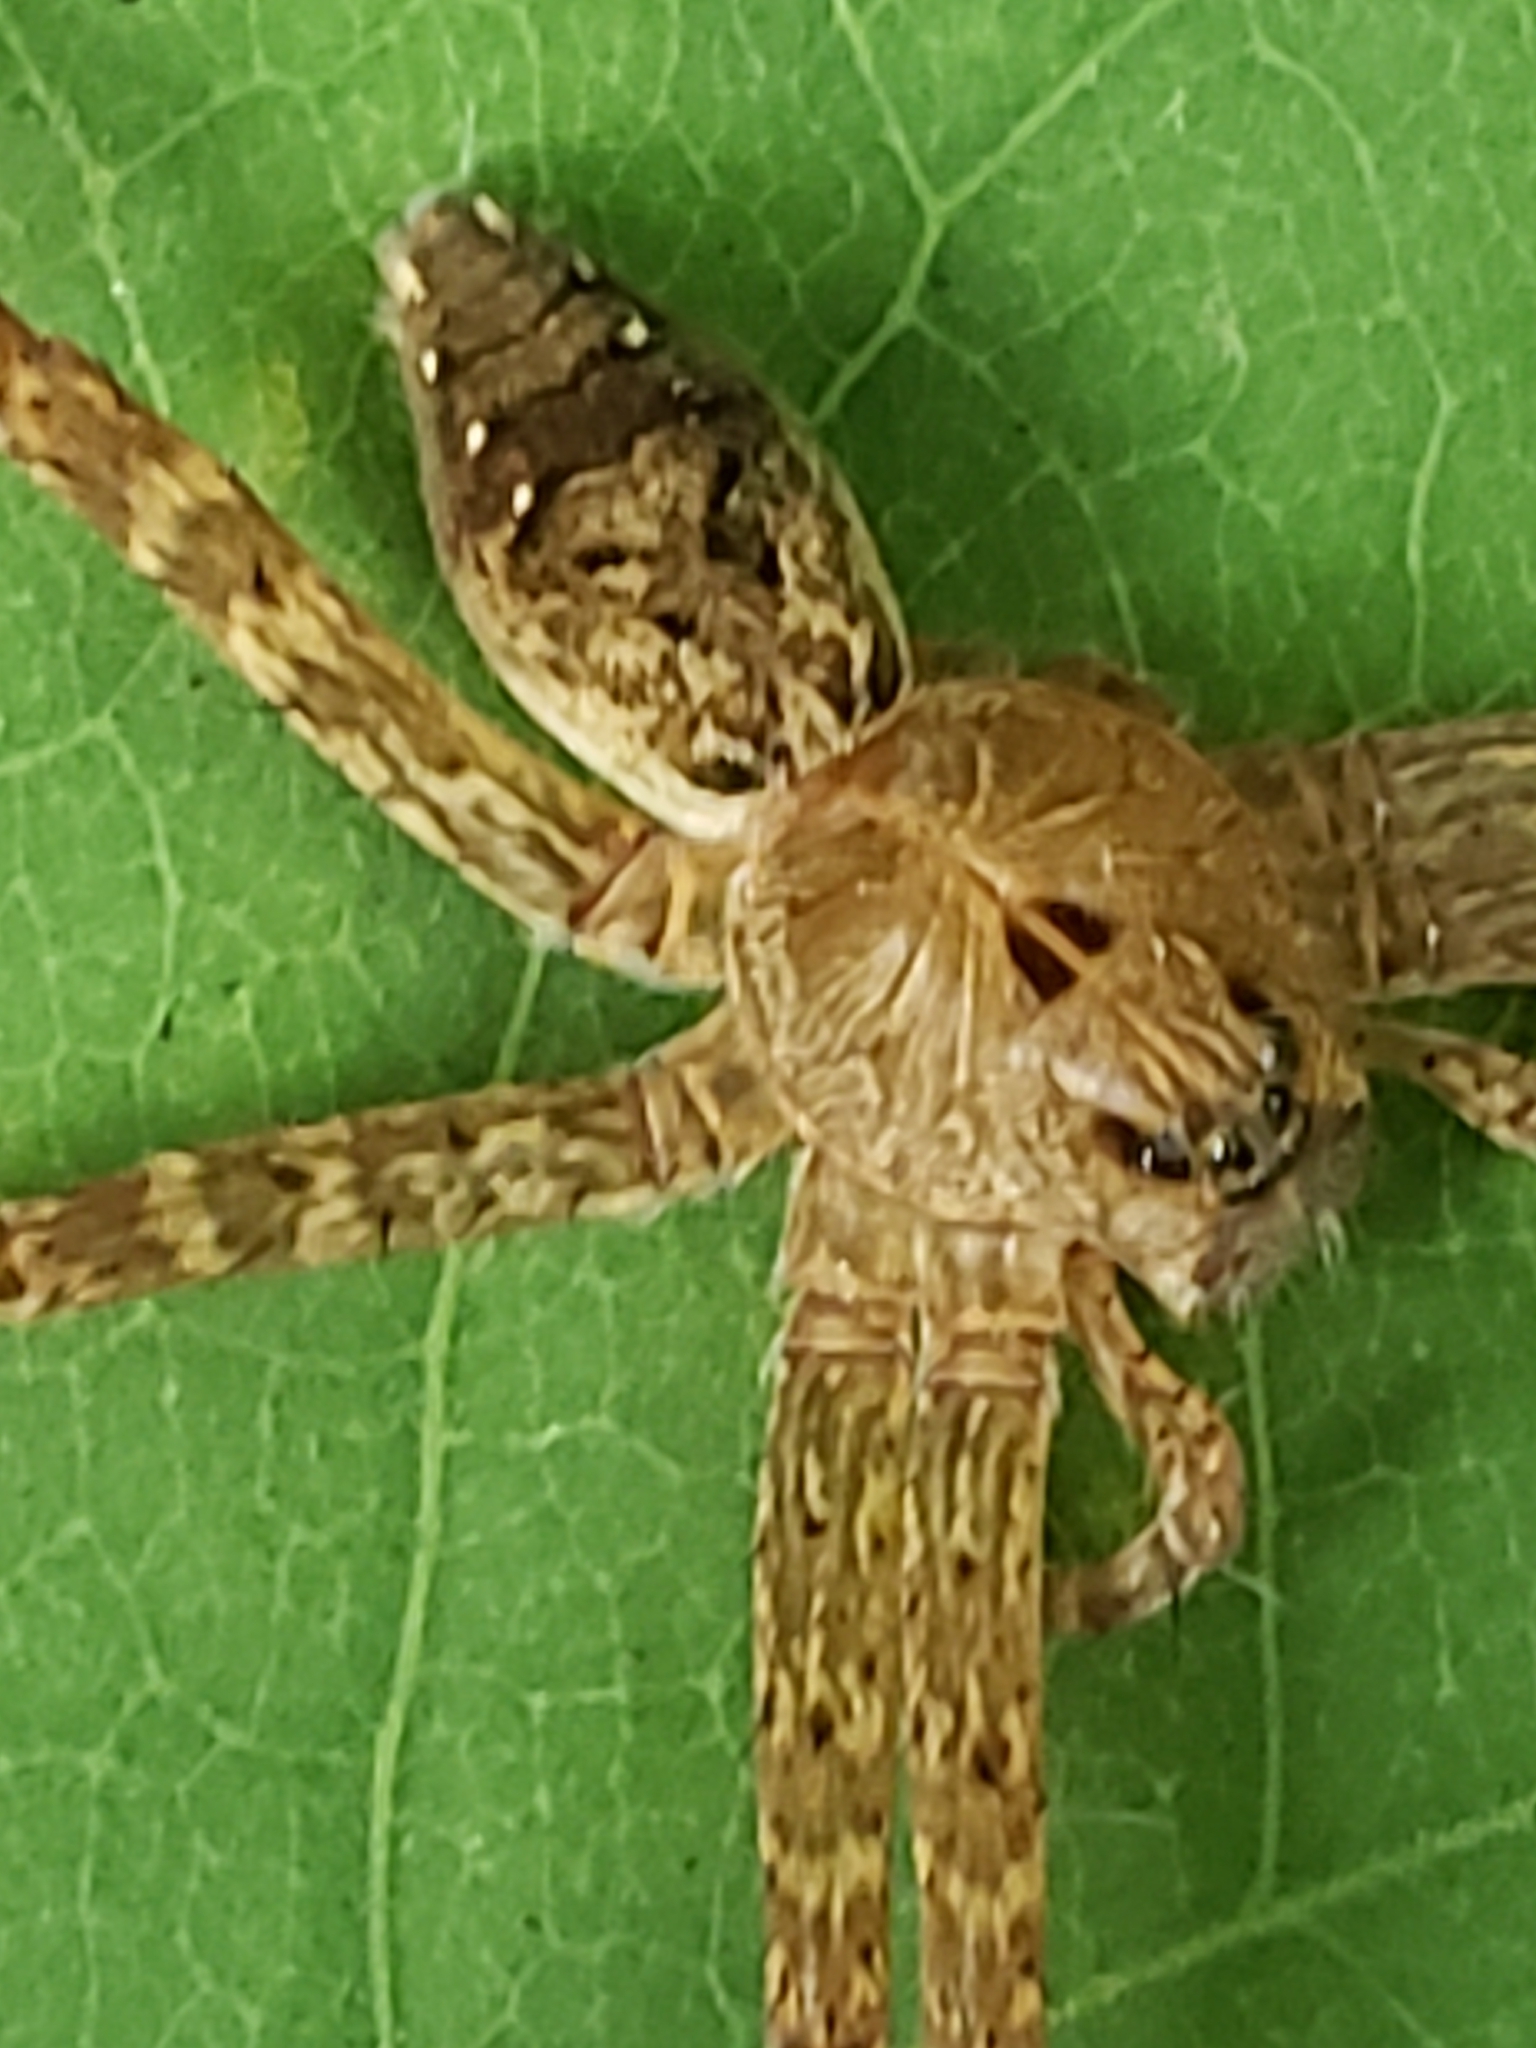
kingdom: Animalia
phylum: Arthropoda
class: Arachnida
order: Araneae
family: Pisauridae
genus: Dolomedes
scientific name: Dolomedes vittatus
